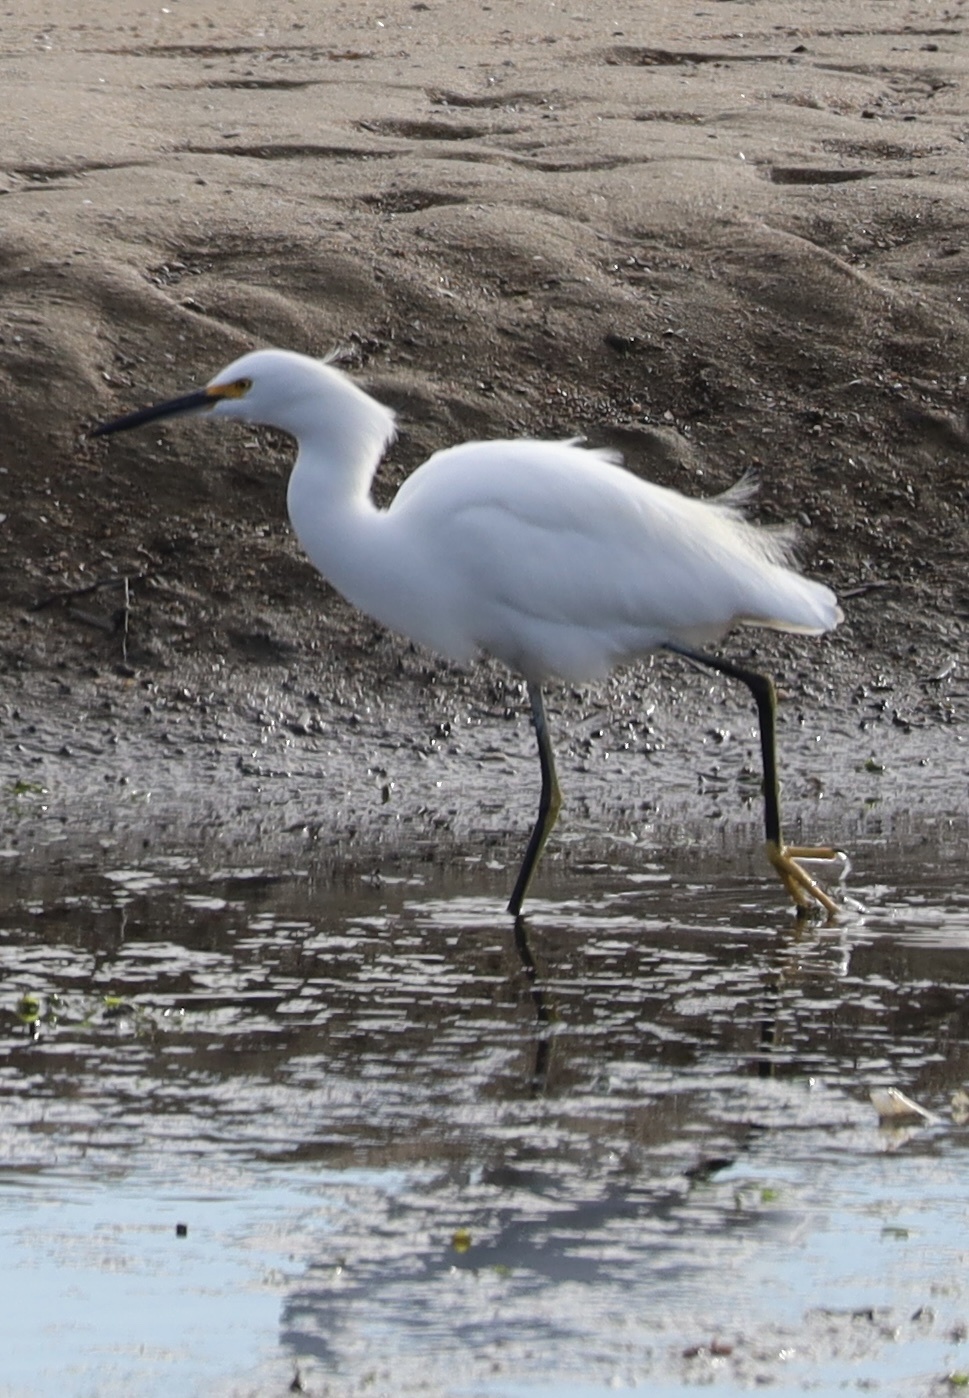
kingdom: Animalia
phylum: Chordata
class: Aves
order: Pelecaniformes
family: Ardeidae
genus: Egretta
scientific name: Egretta thula
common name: Snowy egret
